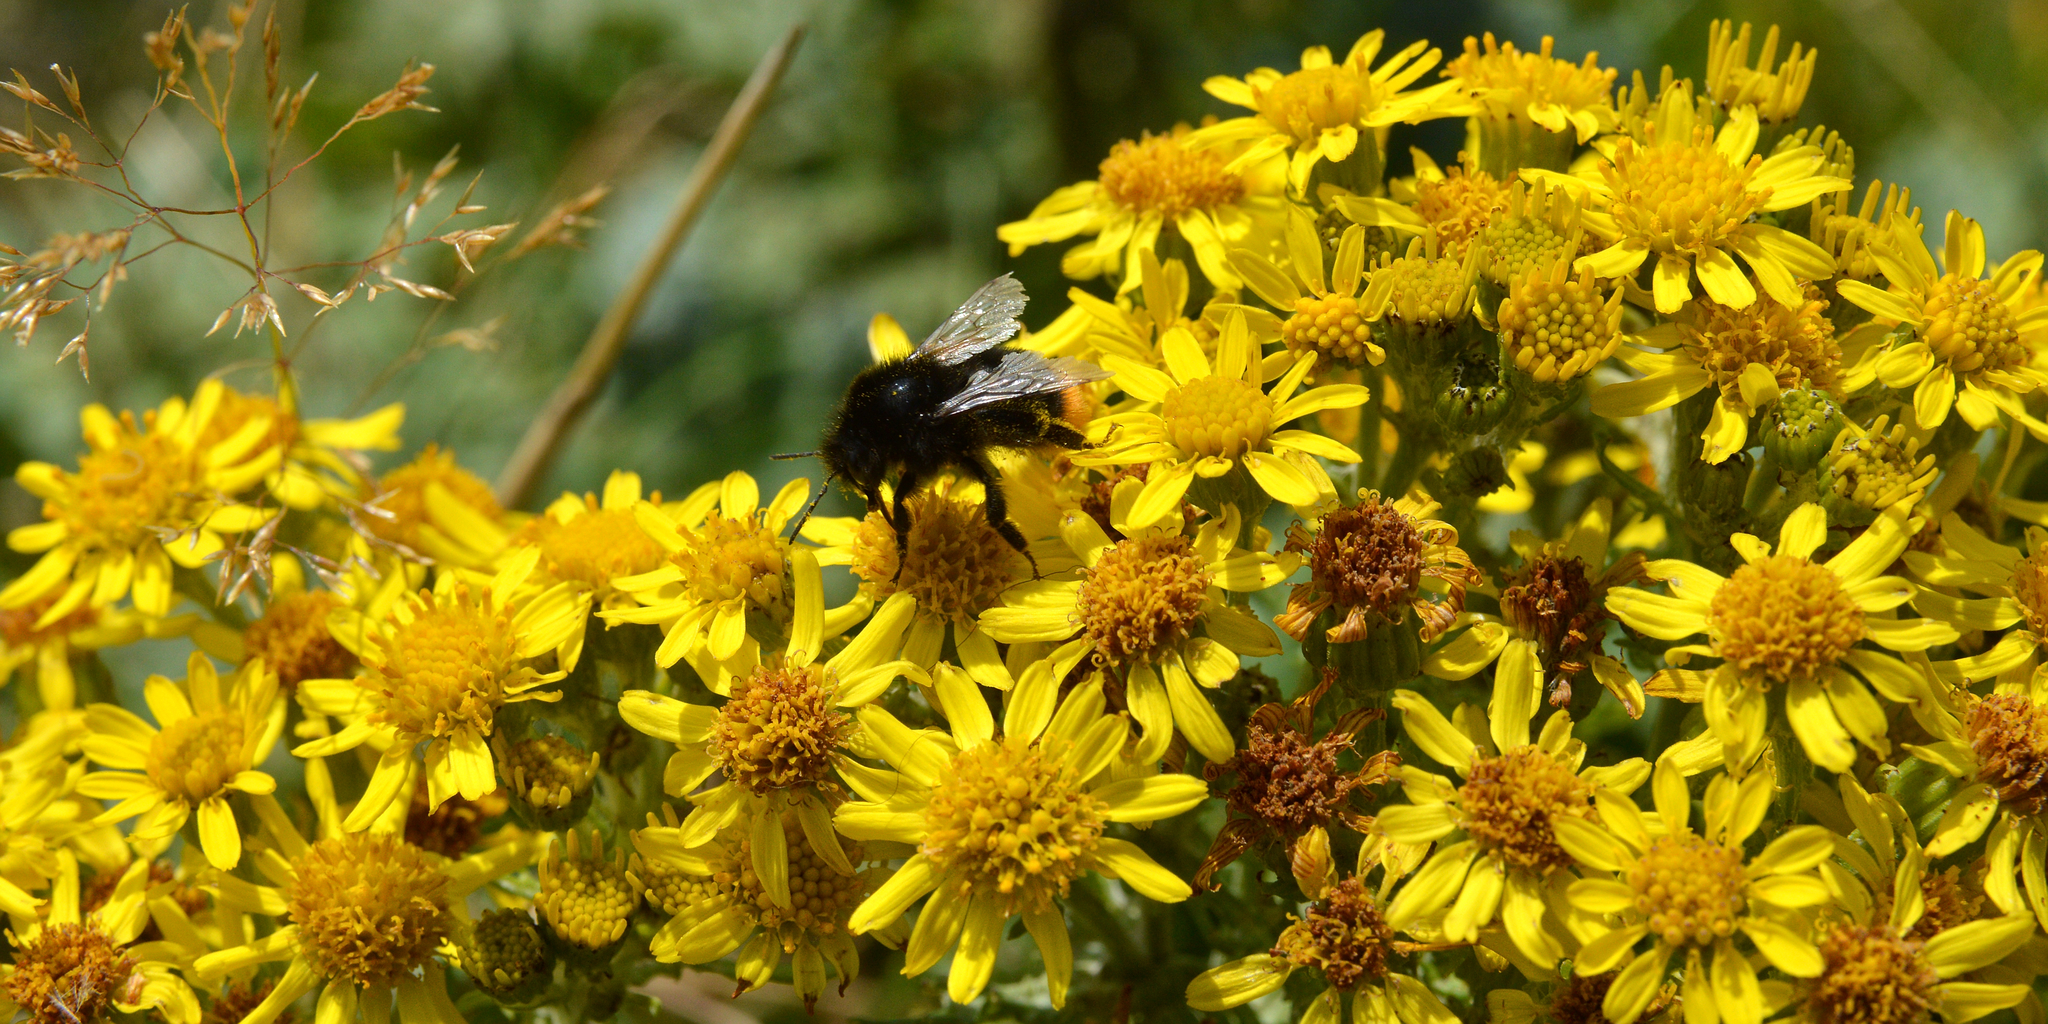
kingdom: Plantae
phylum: Tracheophyta
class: Magnoliopsida
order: Asterales
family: Asteraceae
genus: Jacobaea
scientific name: Jacobaea vulgaris
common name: Stinking willie
